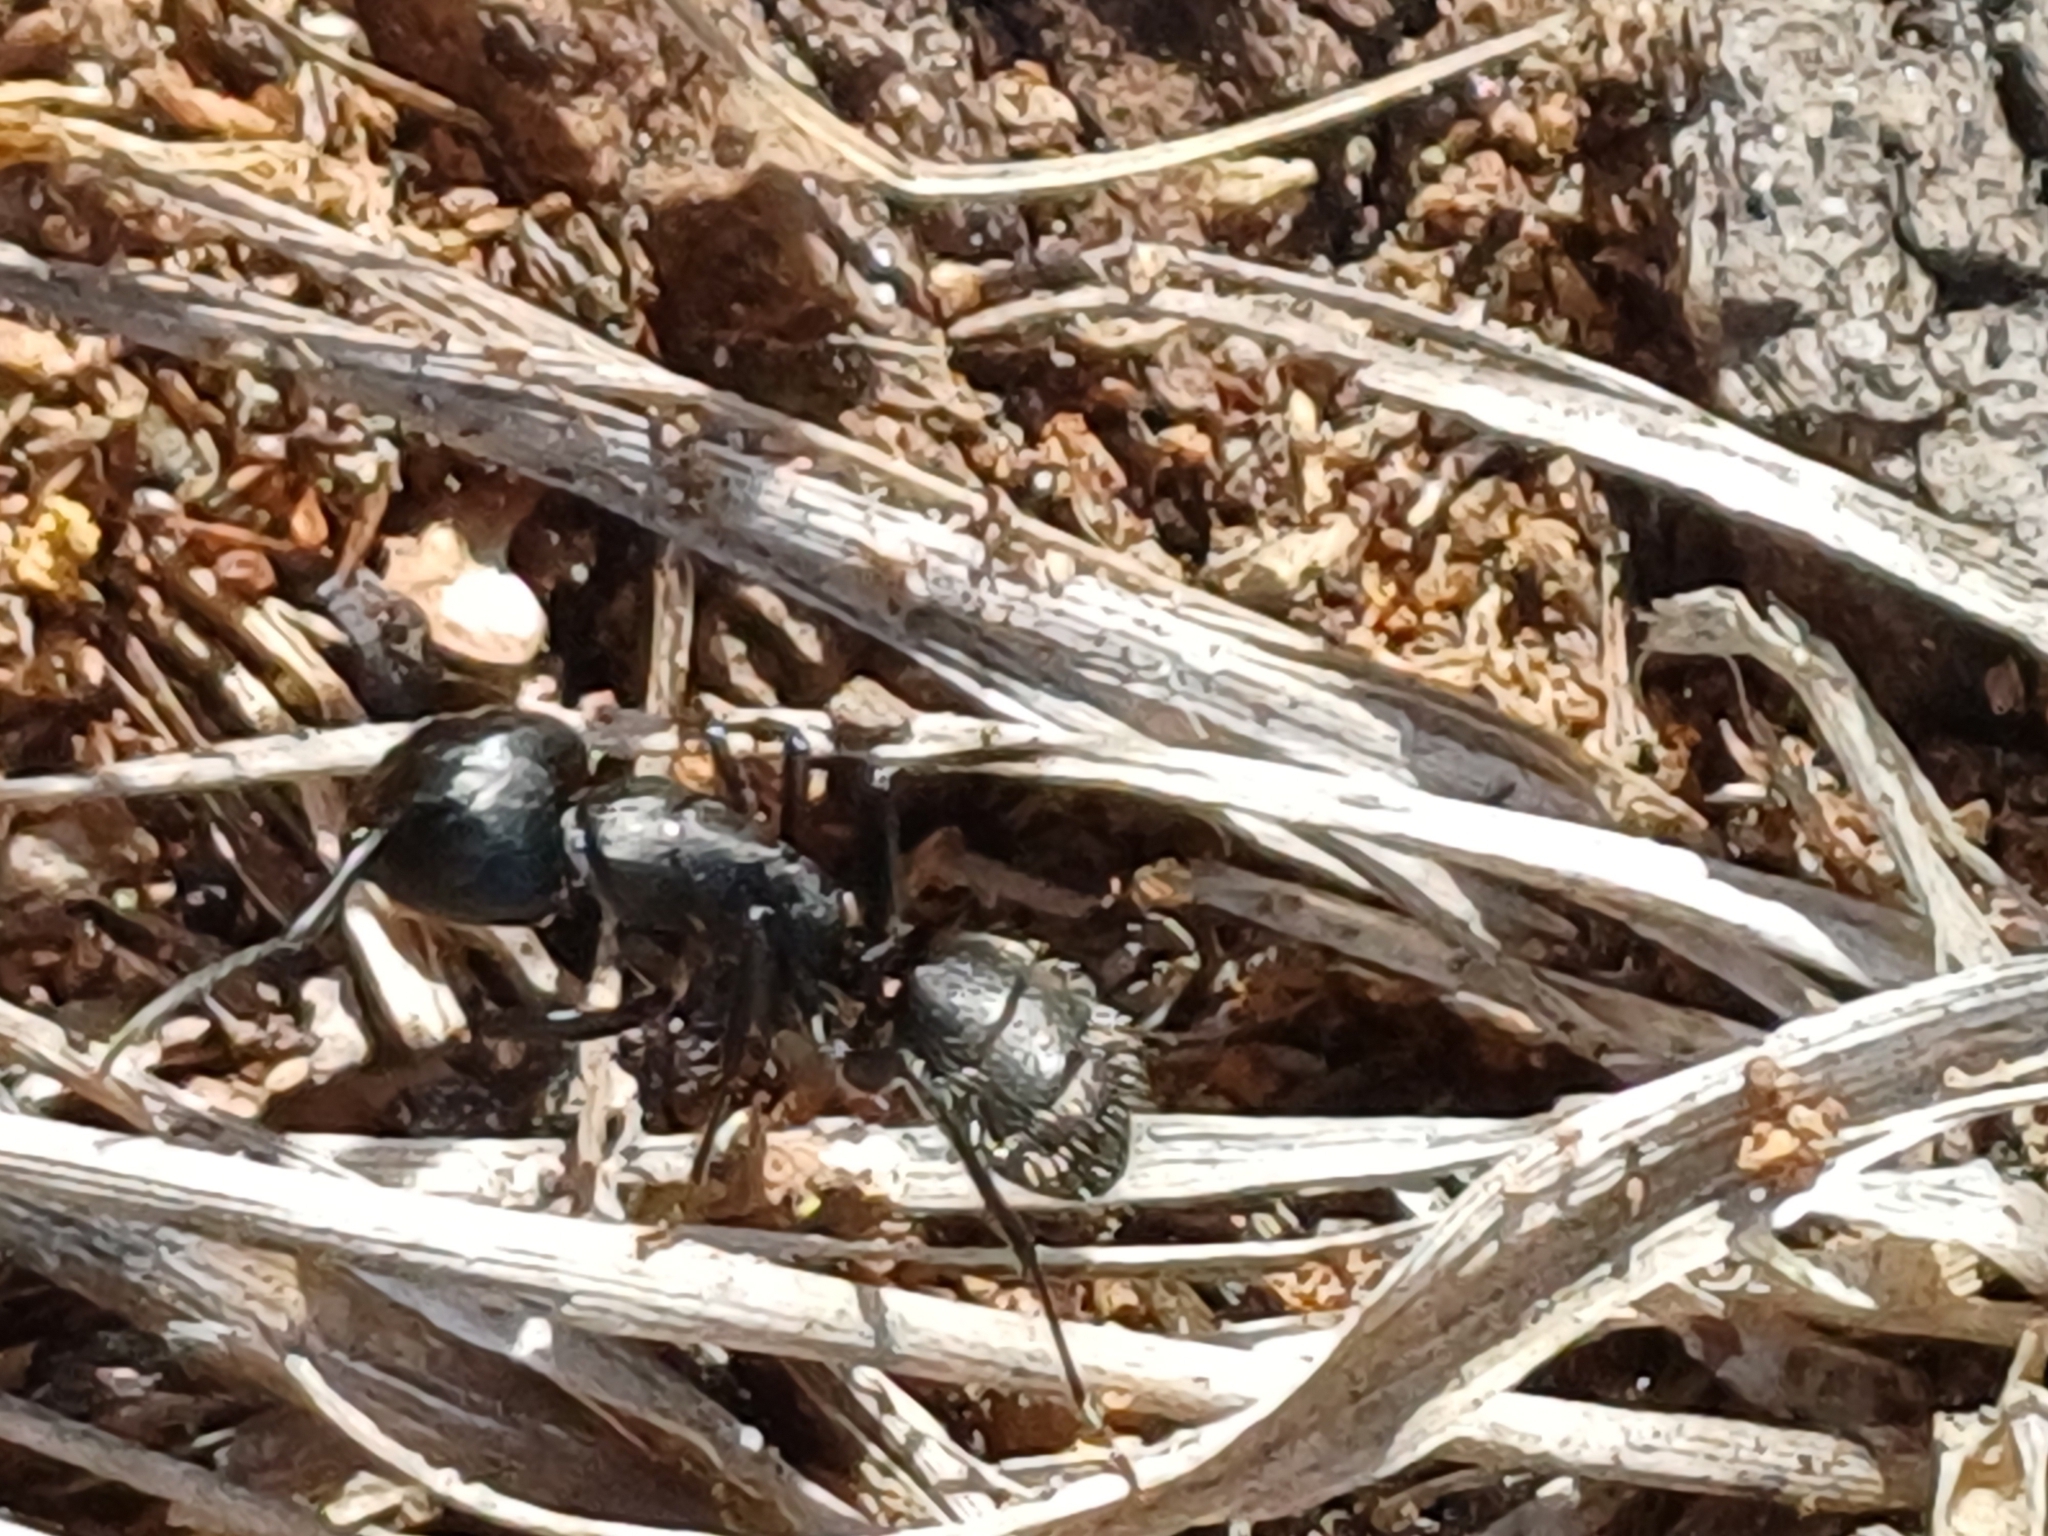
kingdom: Animalia
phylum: Arthropoda
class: Insecta
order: Hymenoptera
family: Formicidae
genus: Camponotus
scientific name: Camponotus vagus
